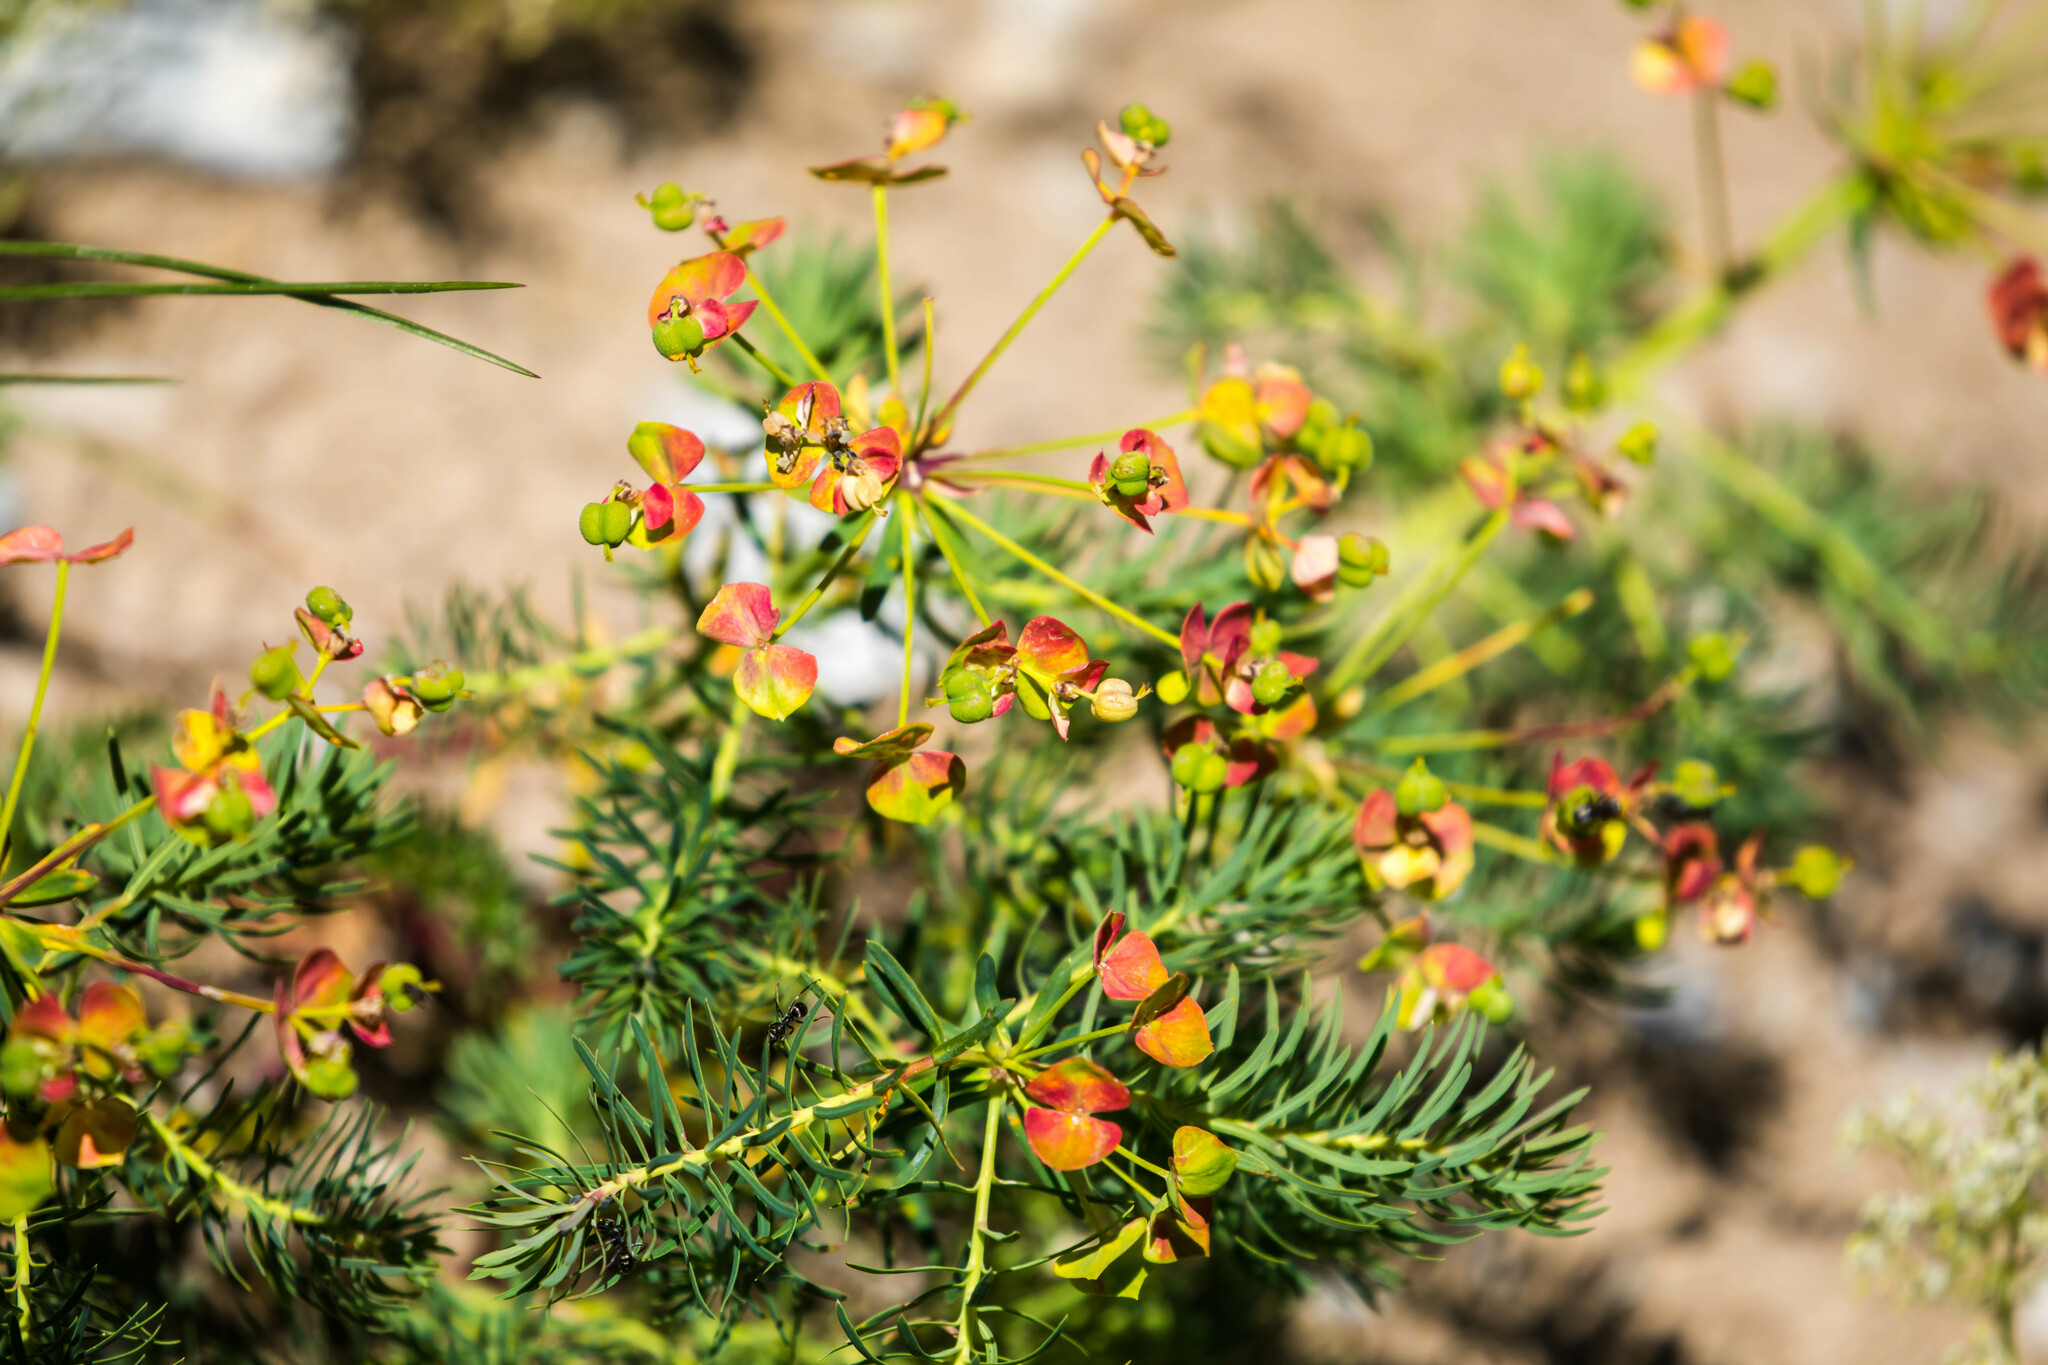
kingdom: Plantae
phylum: Tracheophyta
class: Magnoliopsida
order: Malpighiales
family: Euphorbiaceae
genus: Euphorbia
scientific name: Euphorbia cyparissias
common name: Cypress spurge
